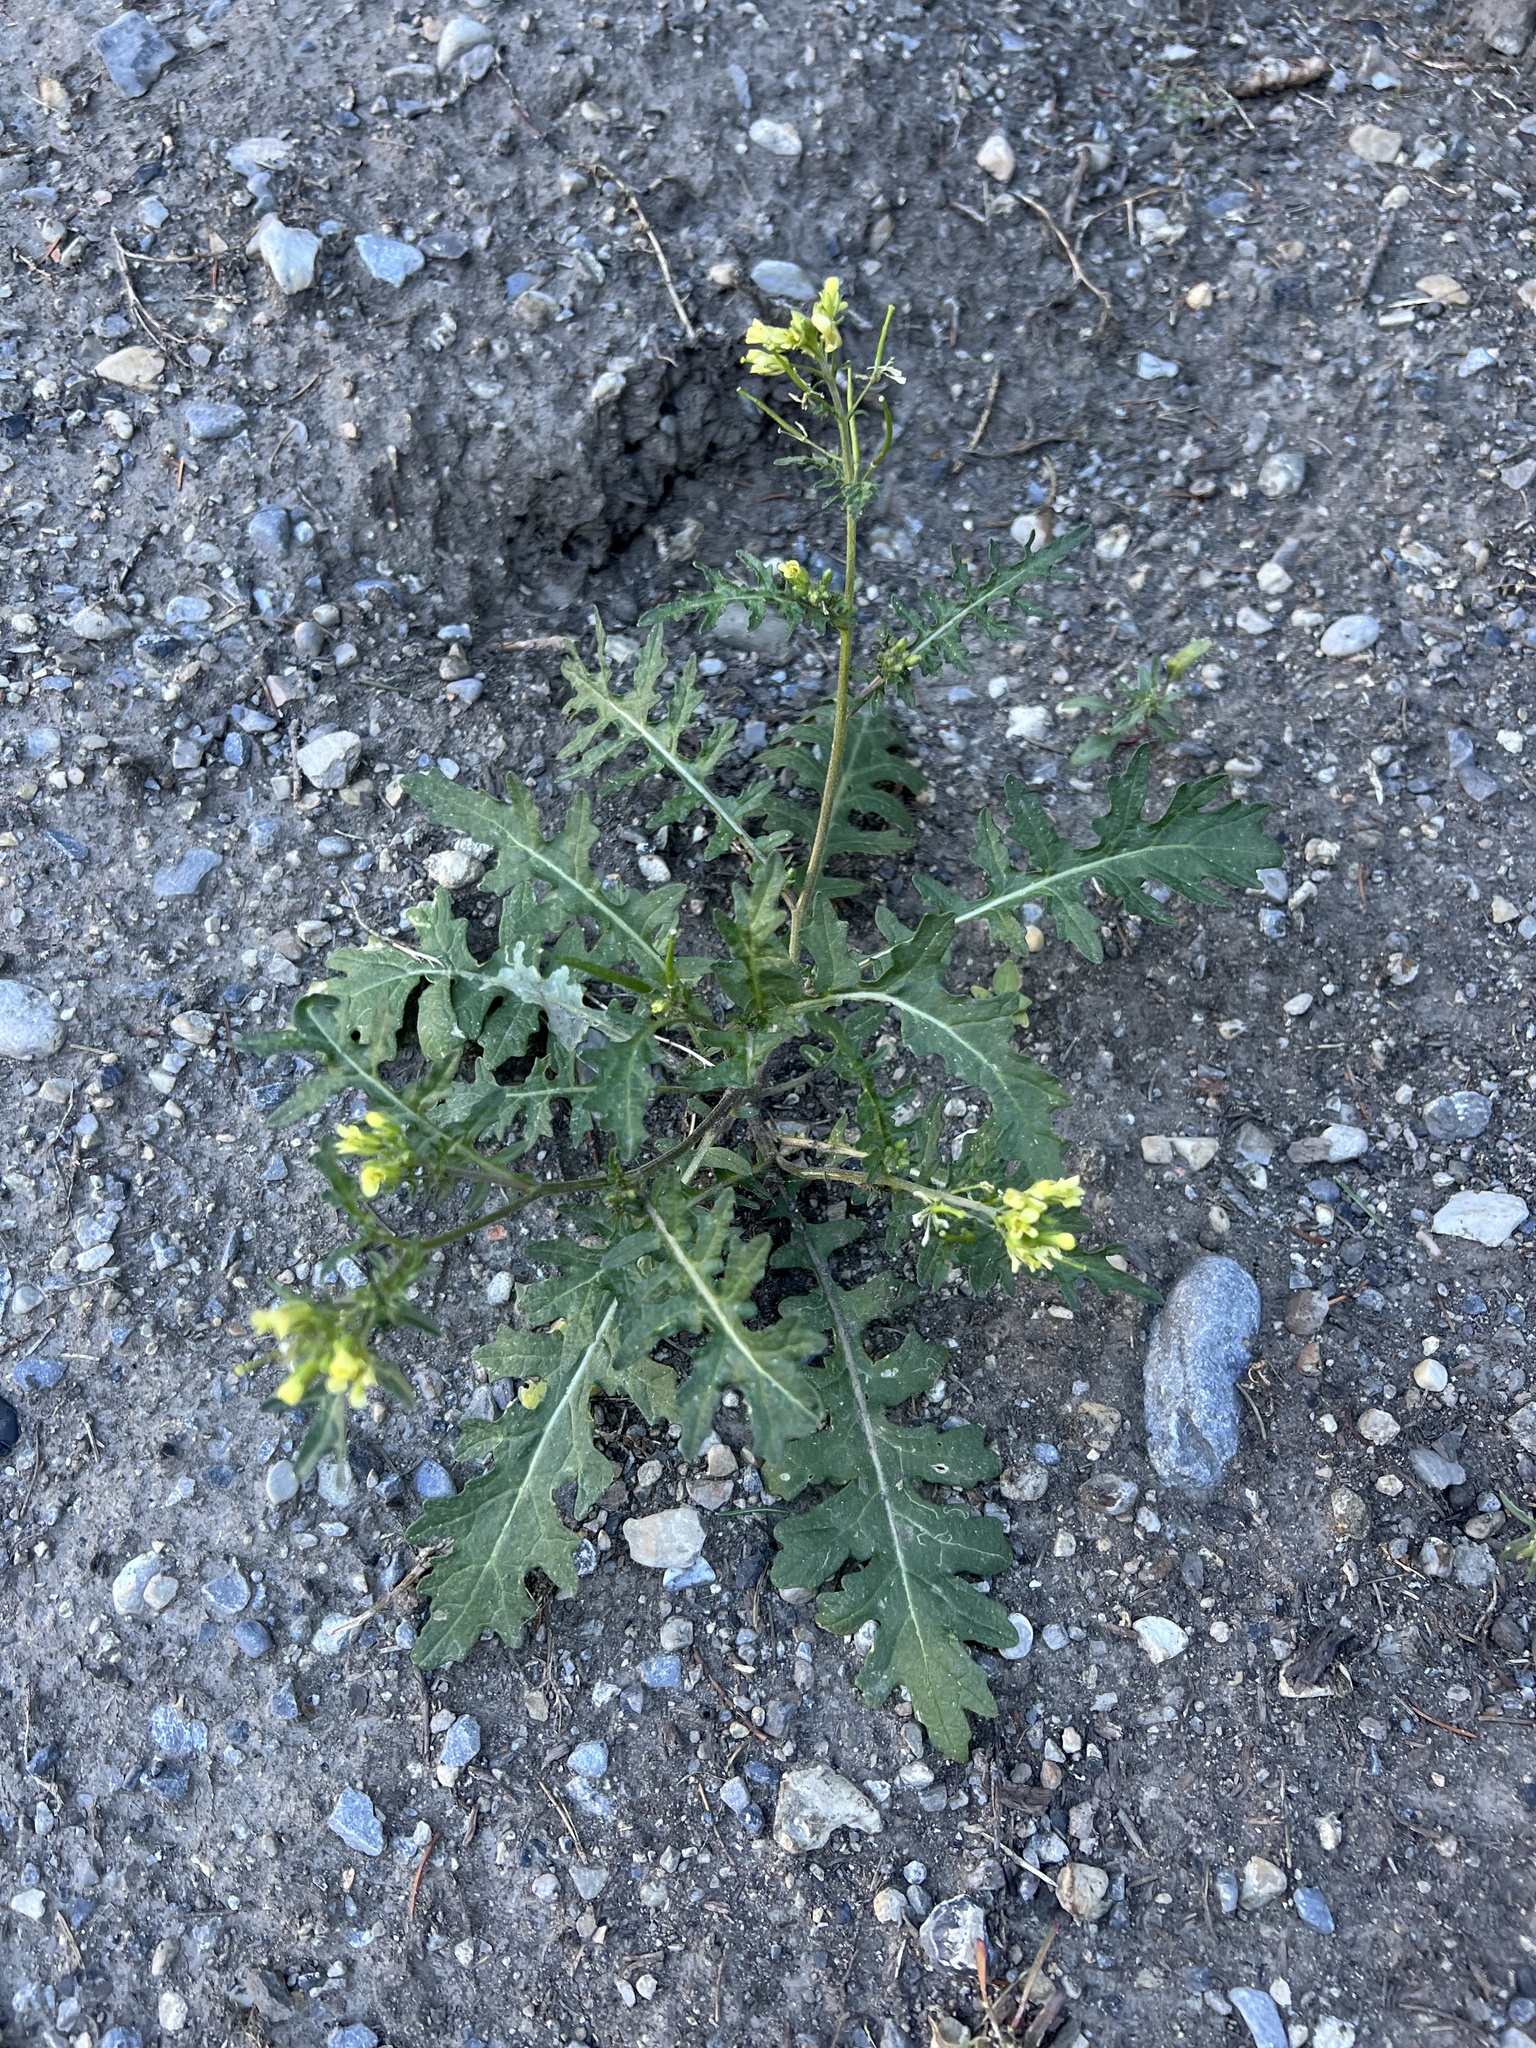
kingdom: Plantae
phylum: Tracheophyta
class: Magnoliopsida
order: Brassicales
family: Brassicaceae
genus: Erucastrum
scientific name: Erucastrum gallicum
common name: Hairy rocket
